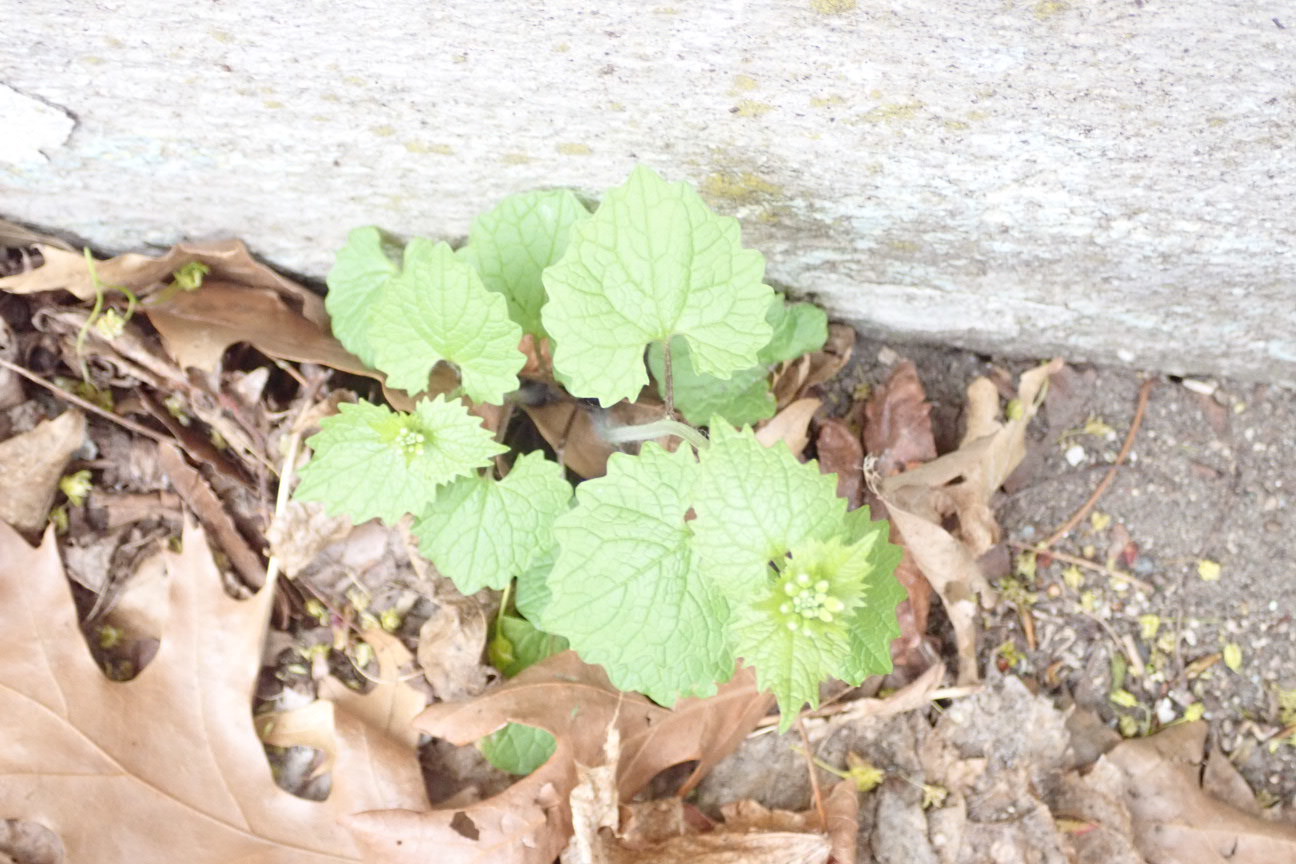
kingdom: Plantae
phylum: Tracheophyta
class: Magnoliopsida
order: Brassicales
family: Brassicaceae
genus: Alliaria
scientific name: Alliaria petiolata
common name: Garlic mustard
